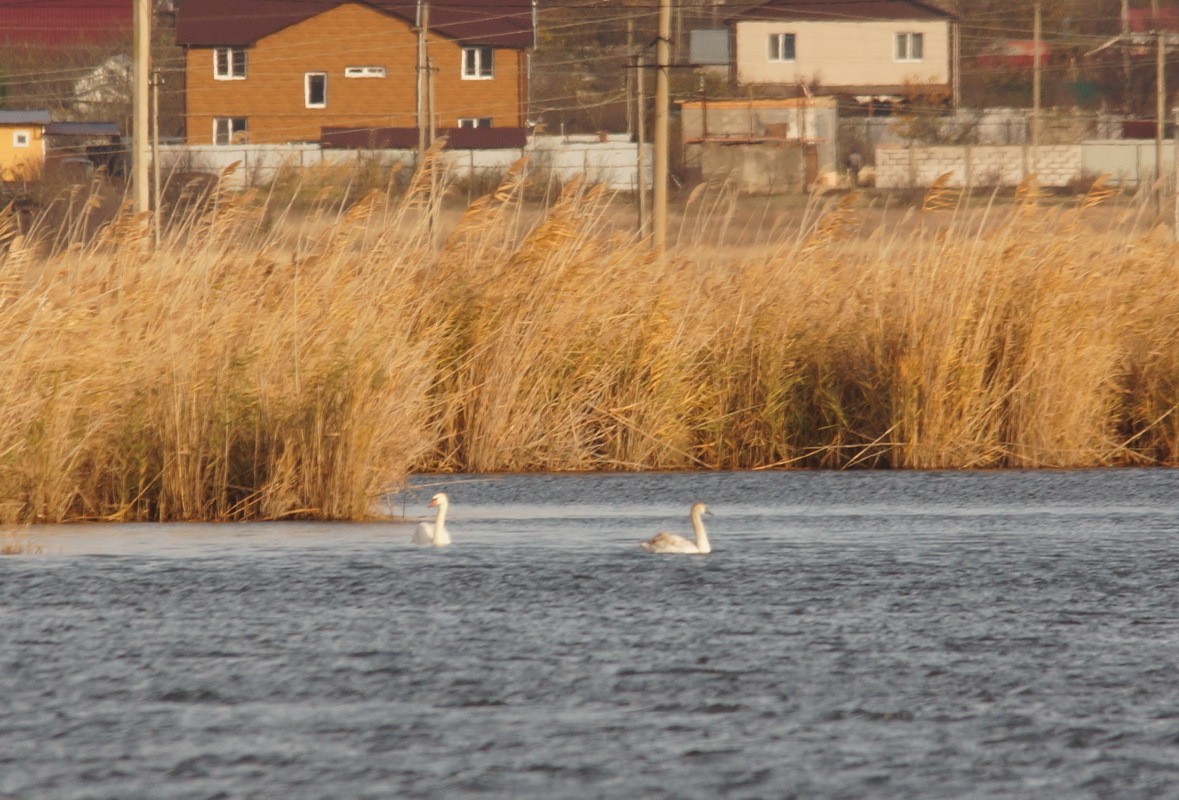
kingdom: Animalia
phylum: Chordata
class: Aves
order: Anseriformes
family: Anatidae
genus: Cygnus
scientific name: Cygnus olor
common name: Mute swan
